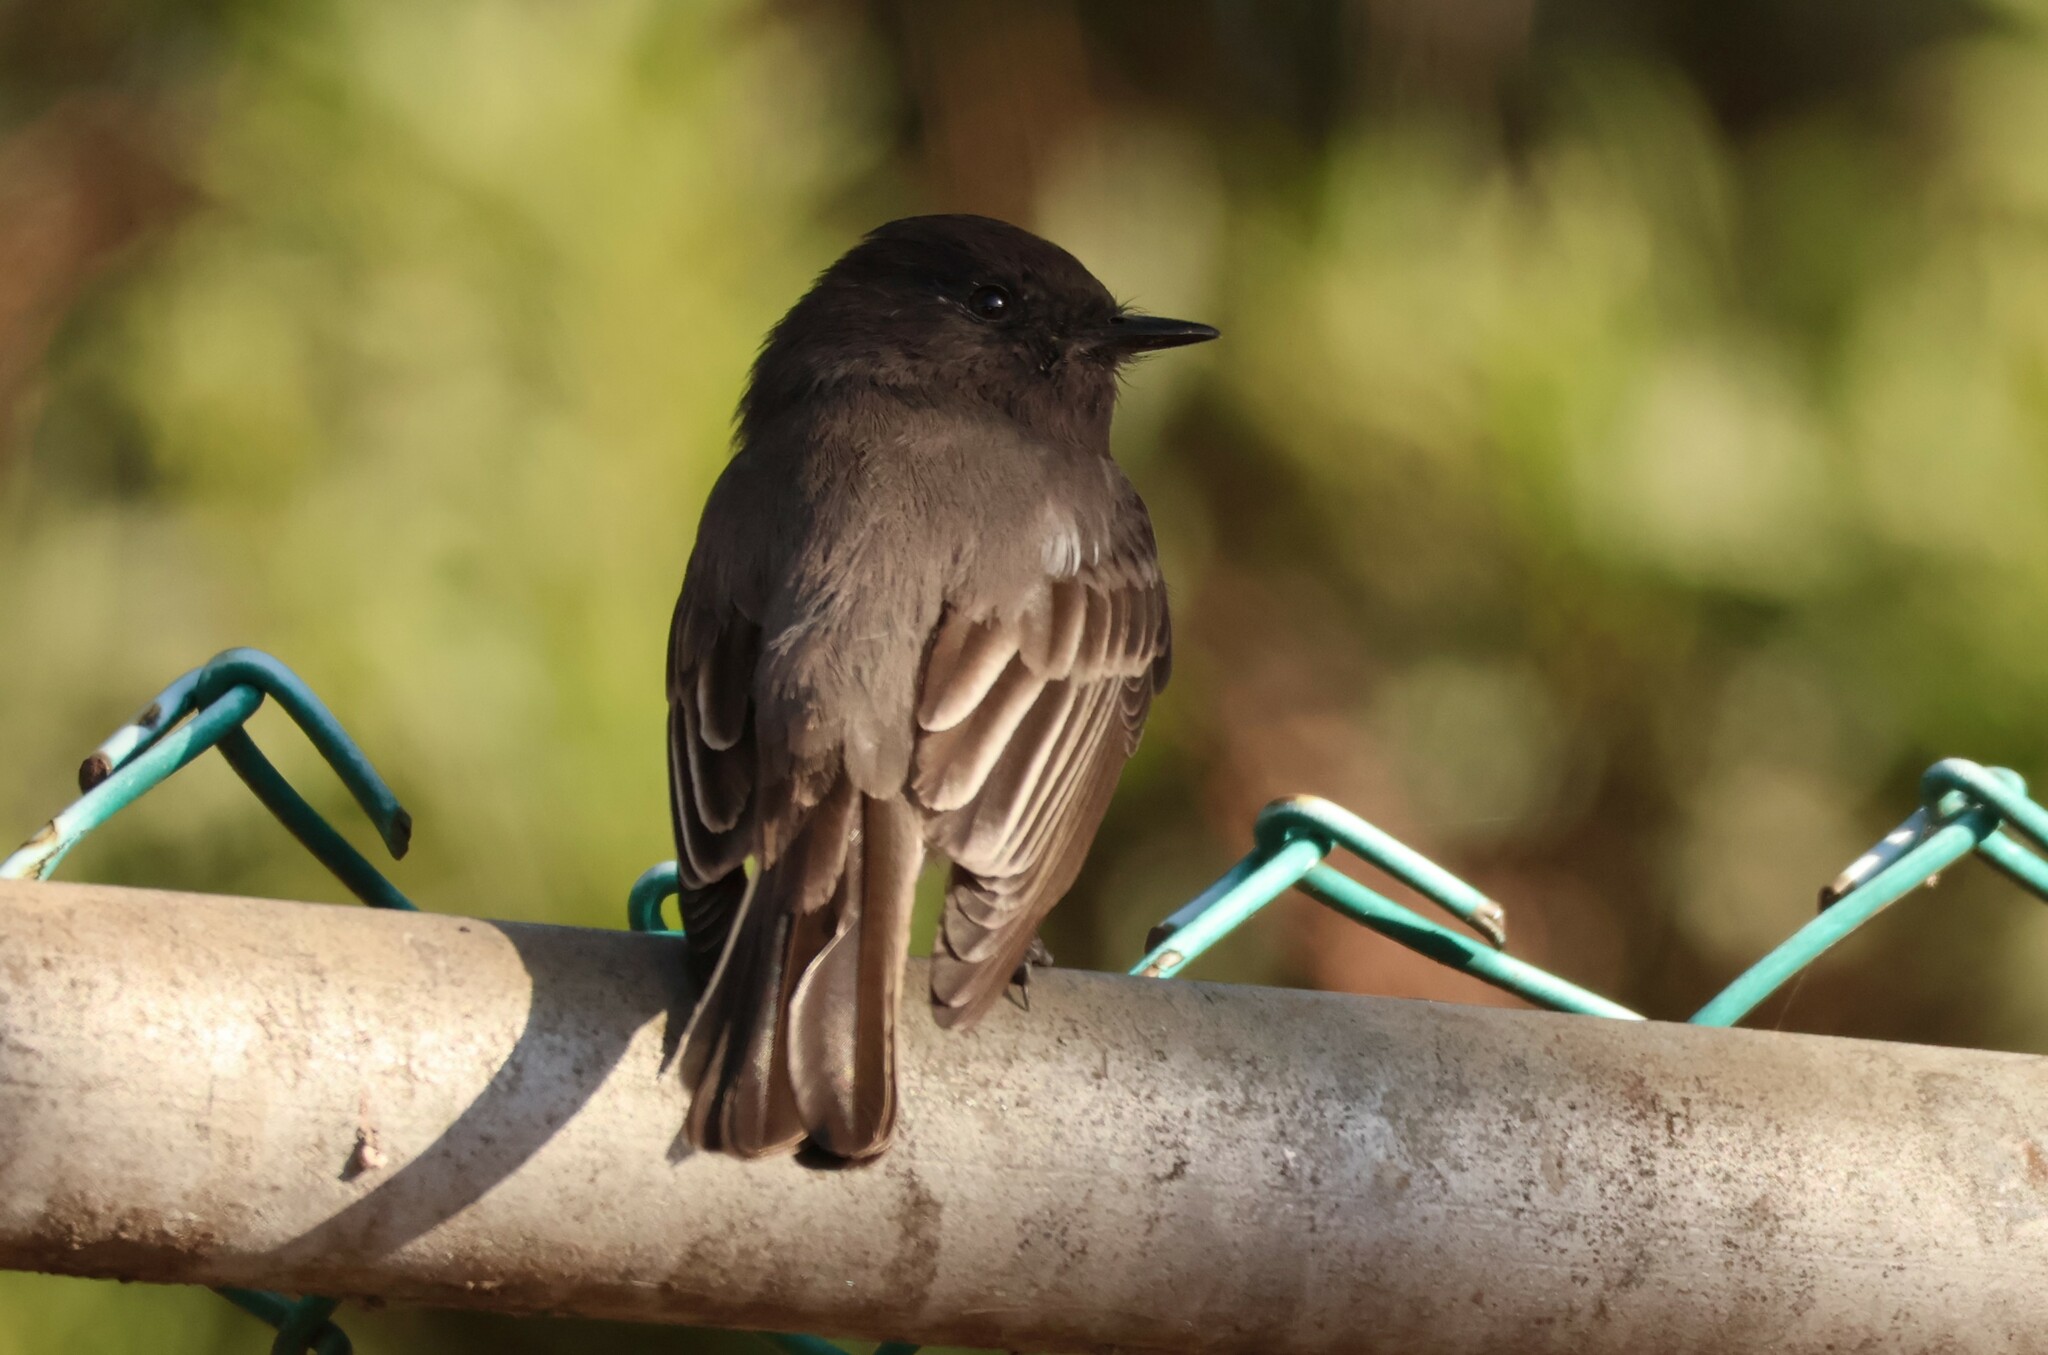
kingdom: Animalia
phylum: Chordata
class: Aves
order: Passeriformes
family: Tyrannidae
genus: Sayornis
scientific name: Sayornis nigricans
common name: Black phoebe
